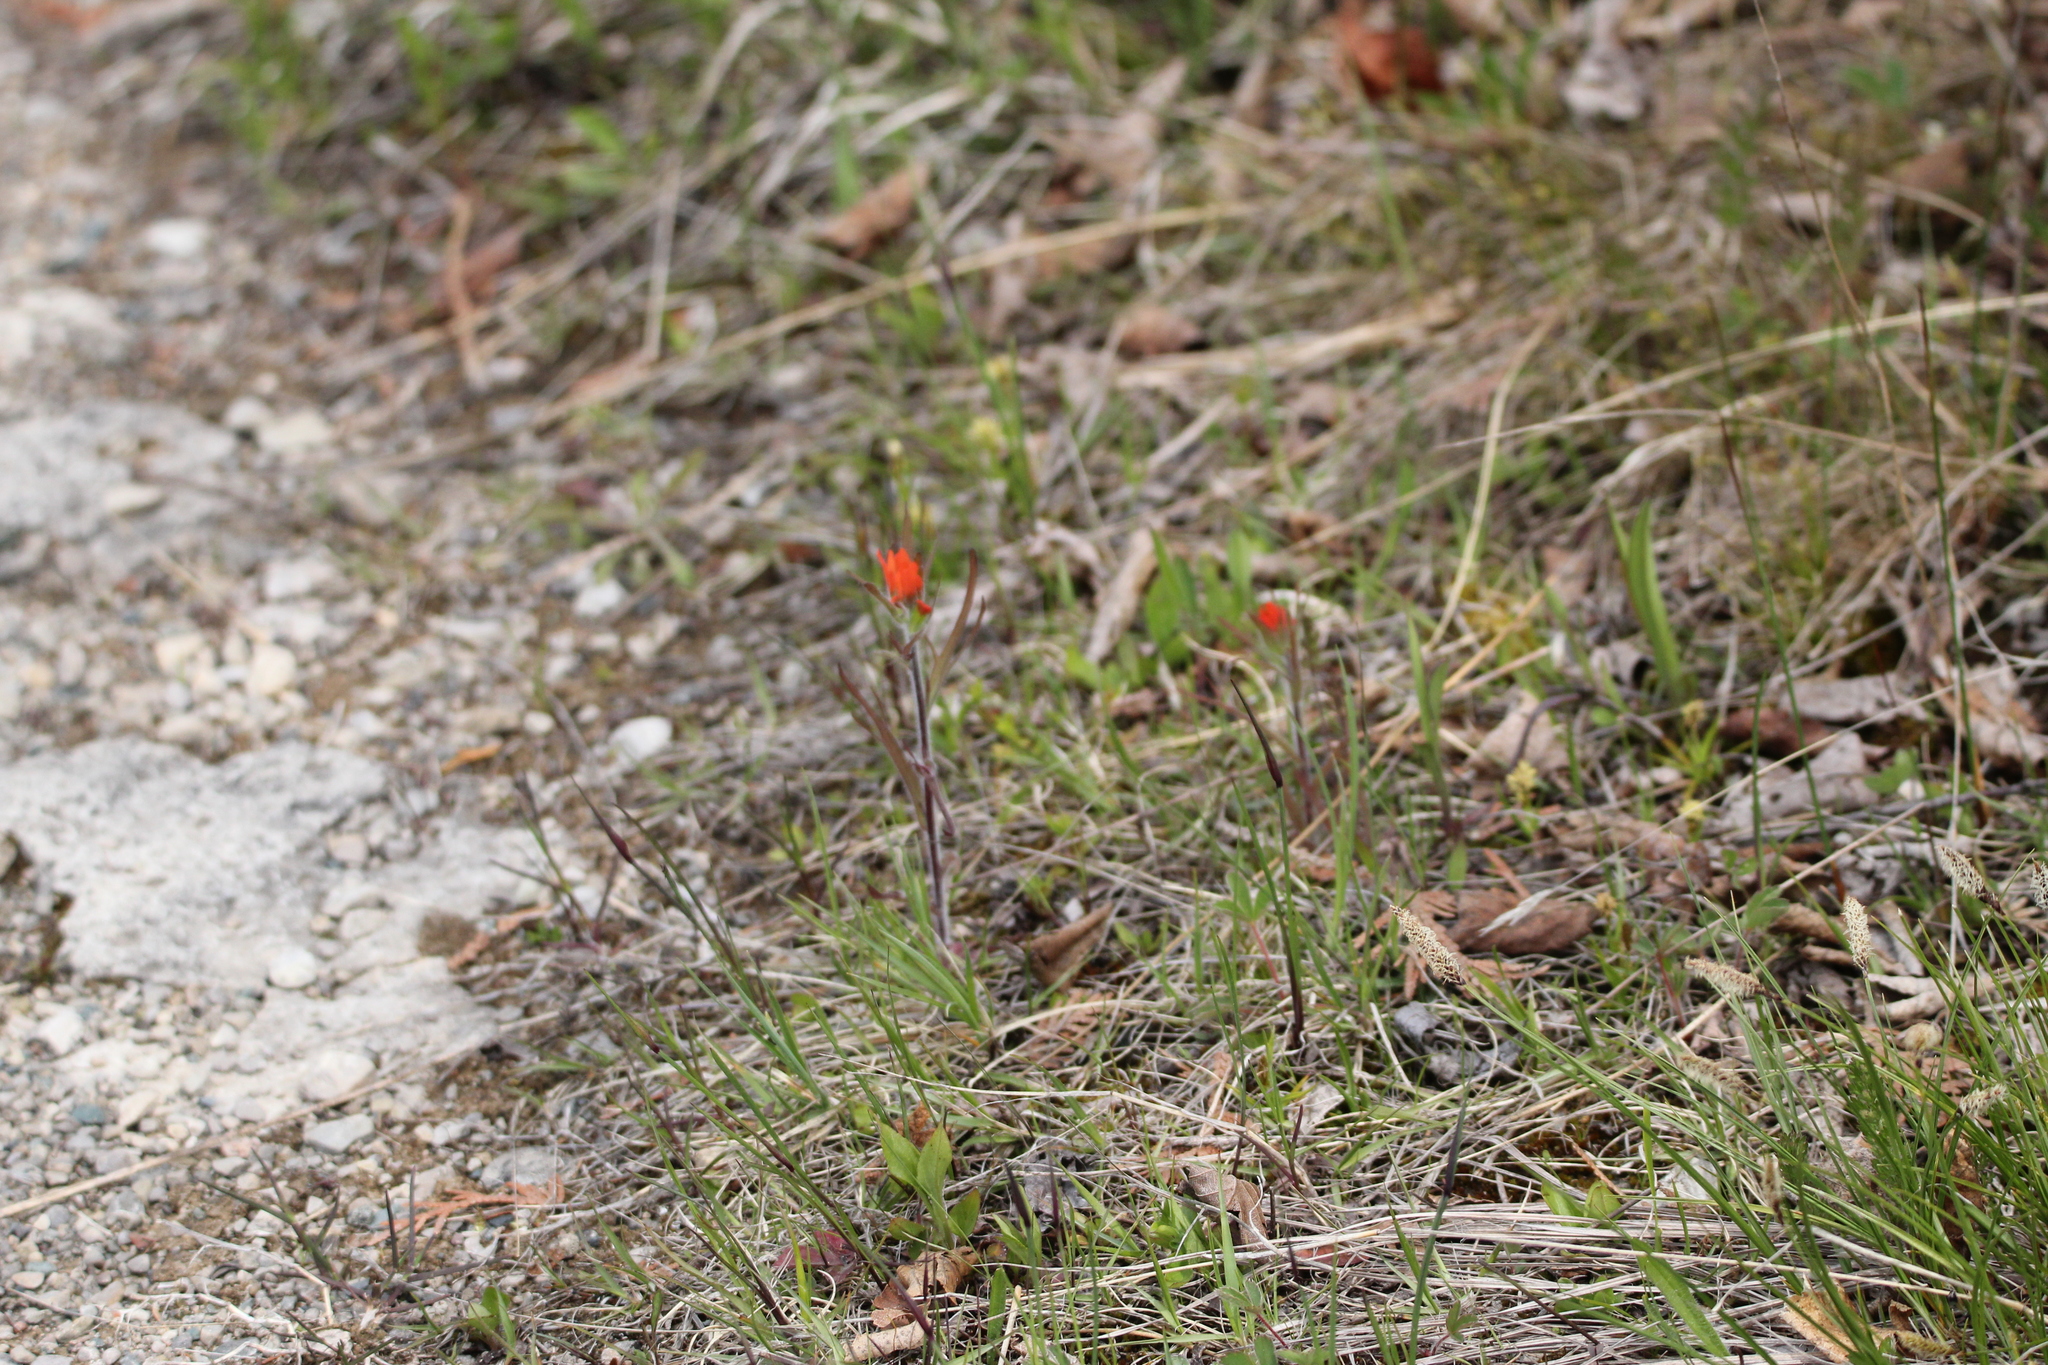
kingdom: Plantae
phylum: Tracheophyta
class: Magnoliopsida
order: Lamiales
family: Orobanchaceae
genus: Castilleja
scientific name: Castilleja coccinea
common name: Scarlet paintbrush
